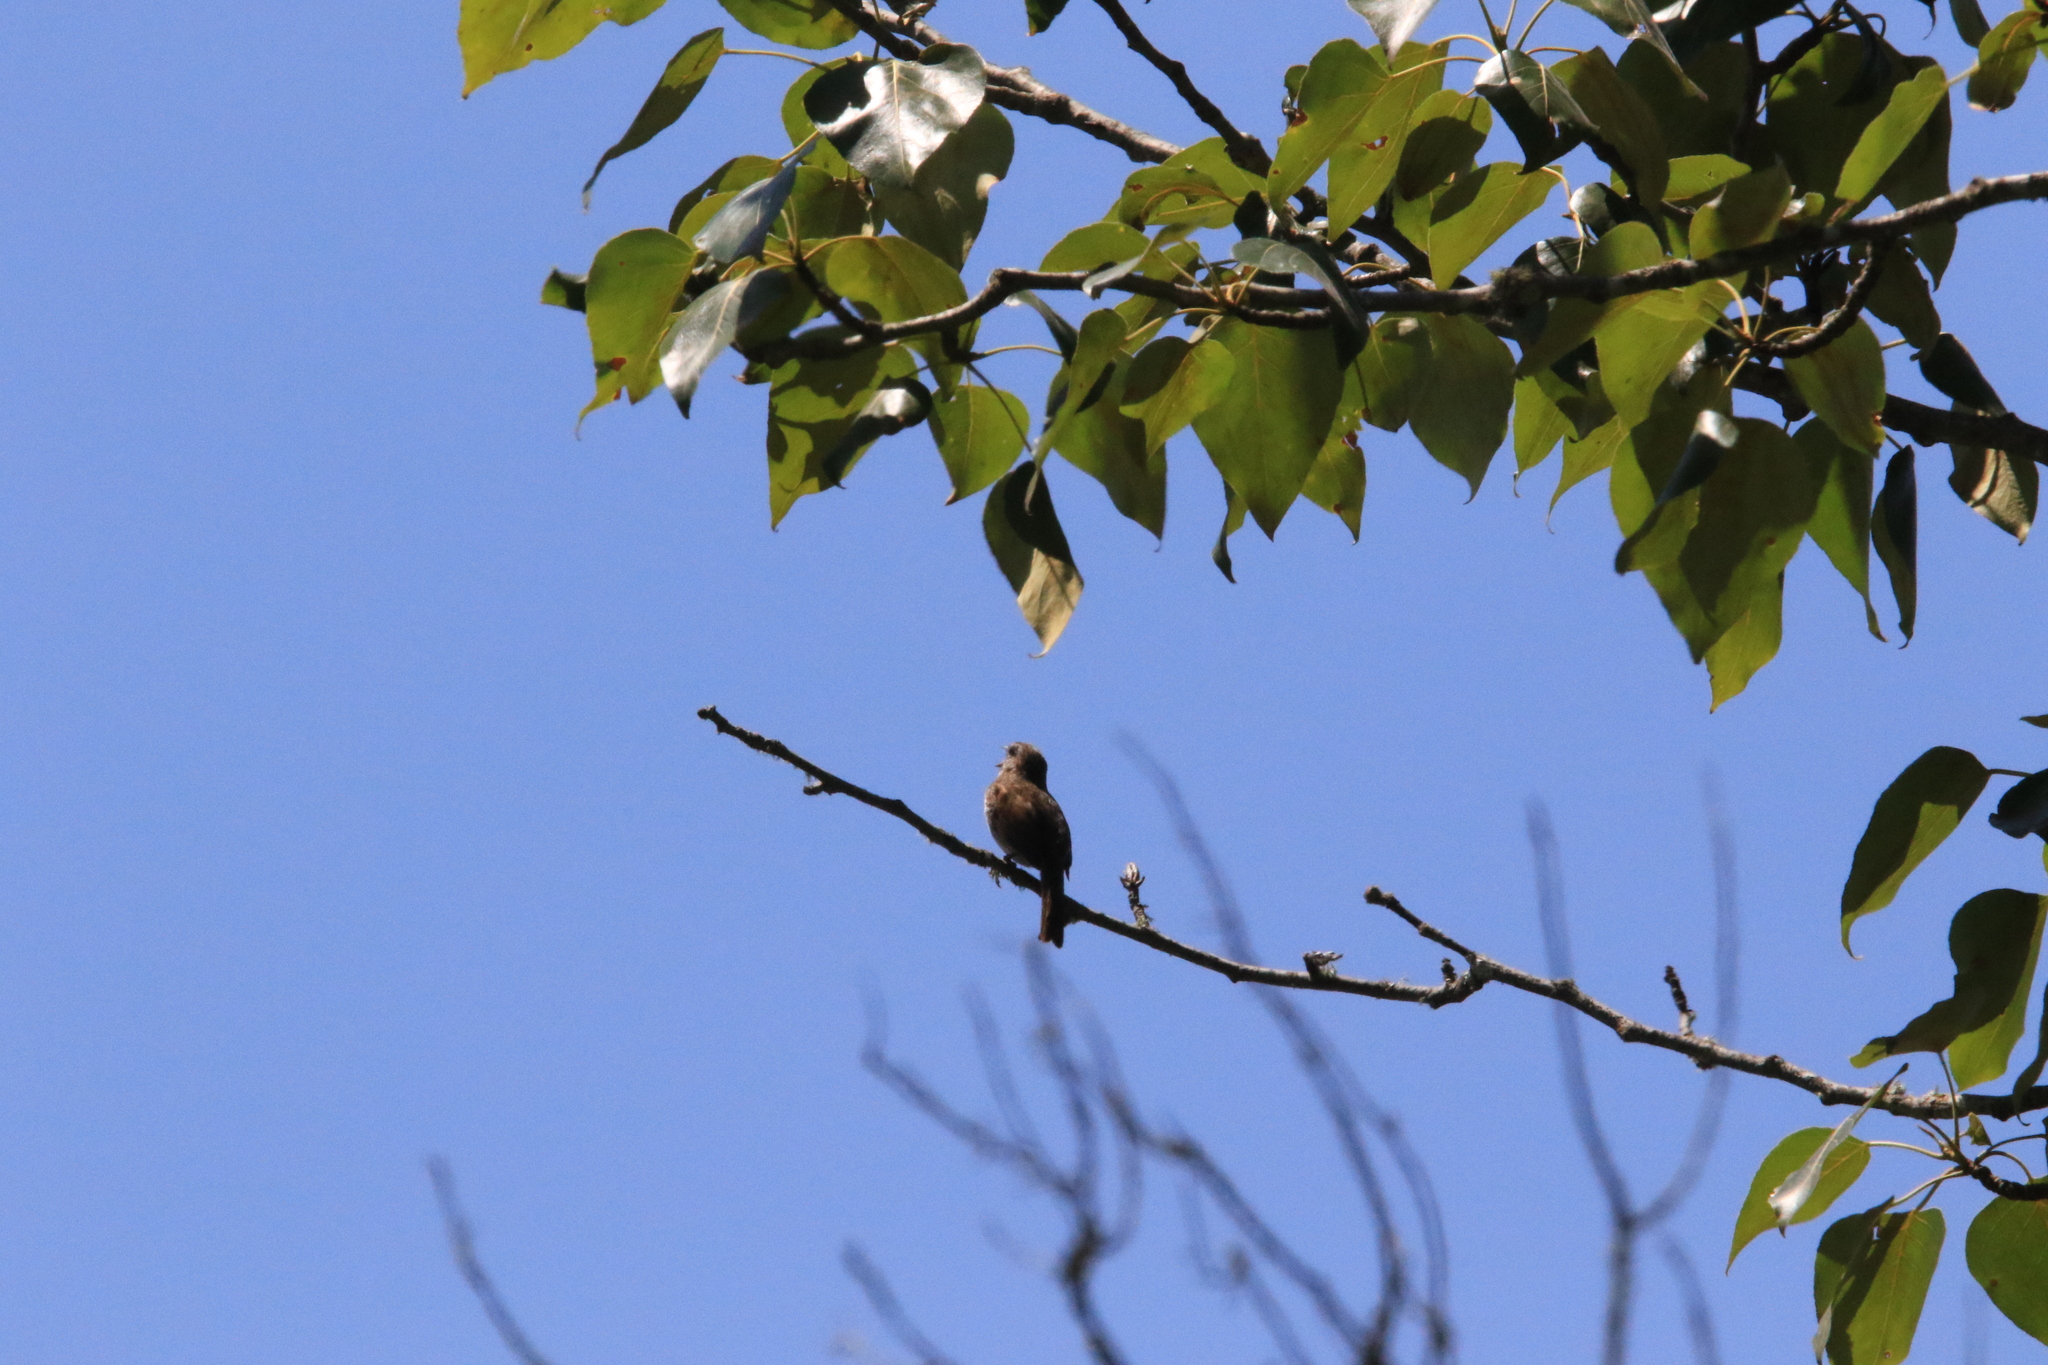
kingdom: Animalia
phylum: Chordata
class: Aves
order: Passeriformes
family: Passerellidae
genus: Melospiza
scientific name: Melospiza melodia
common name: Song sparrow
